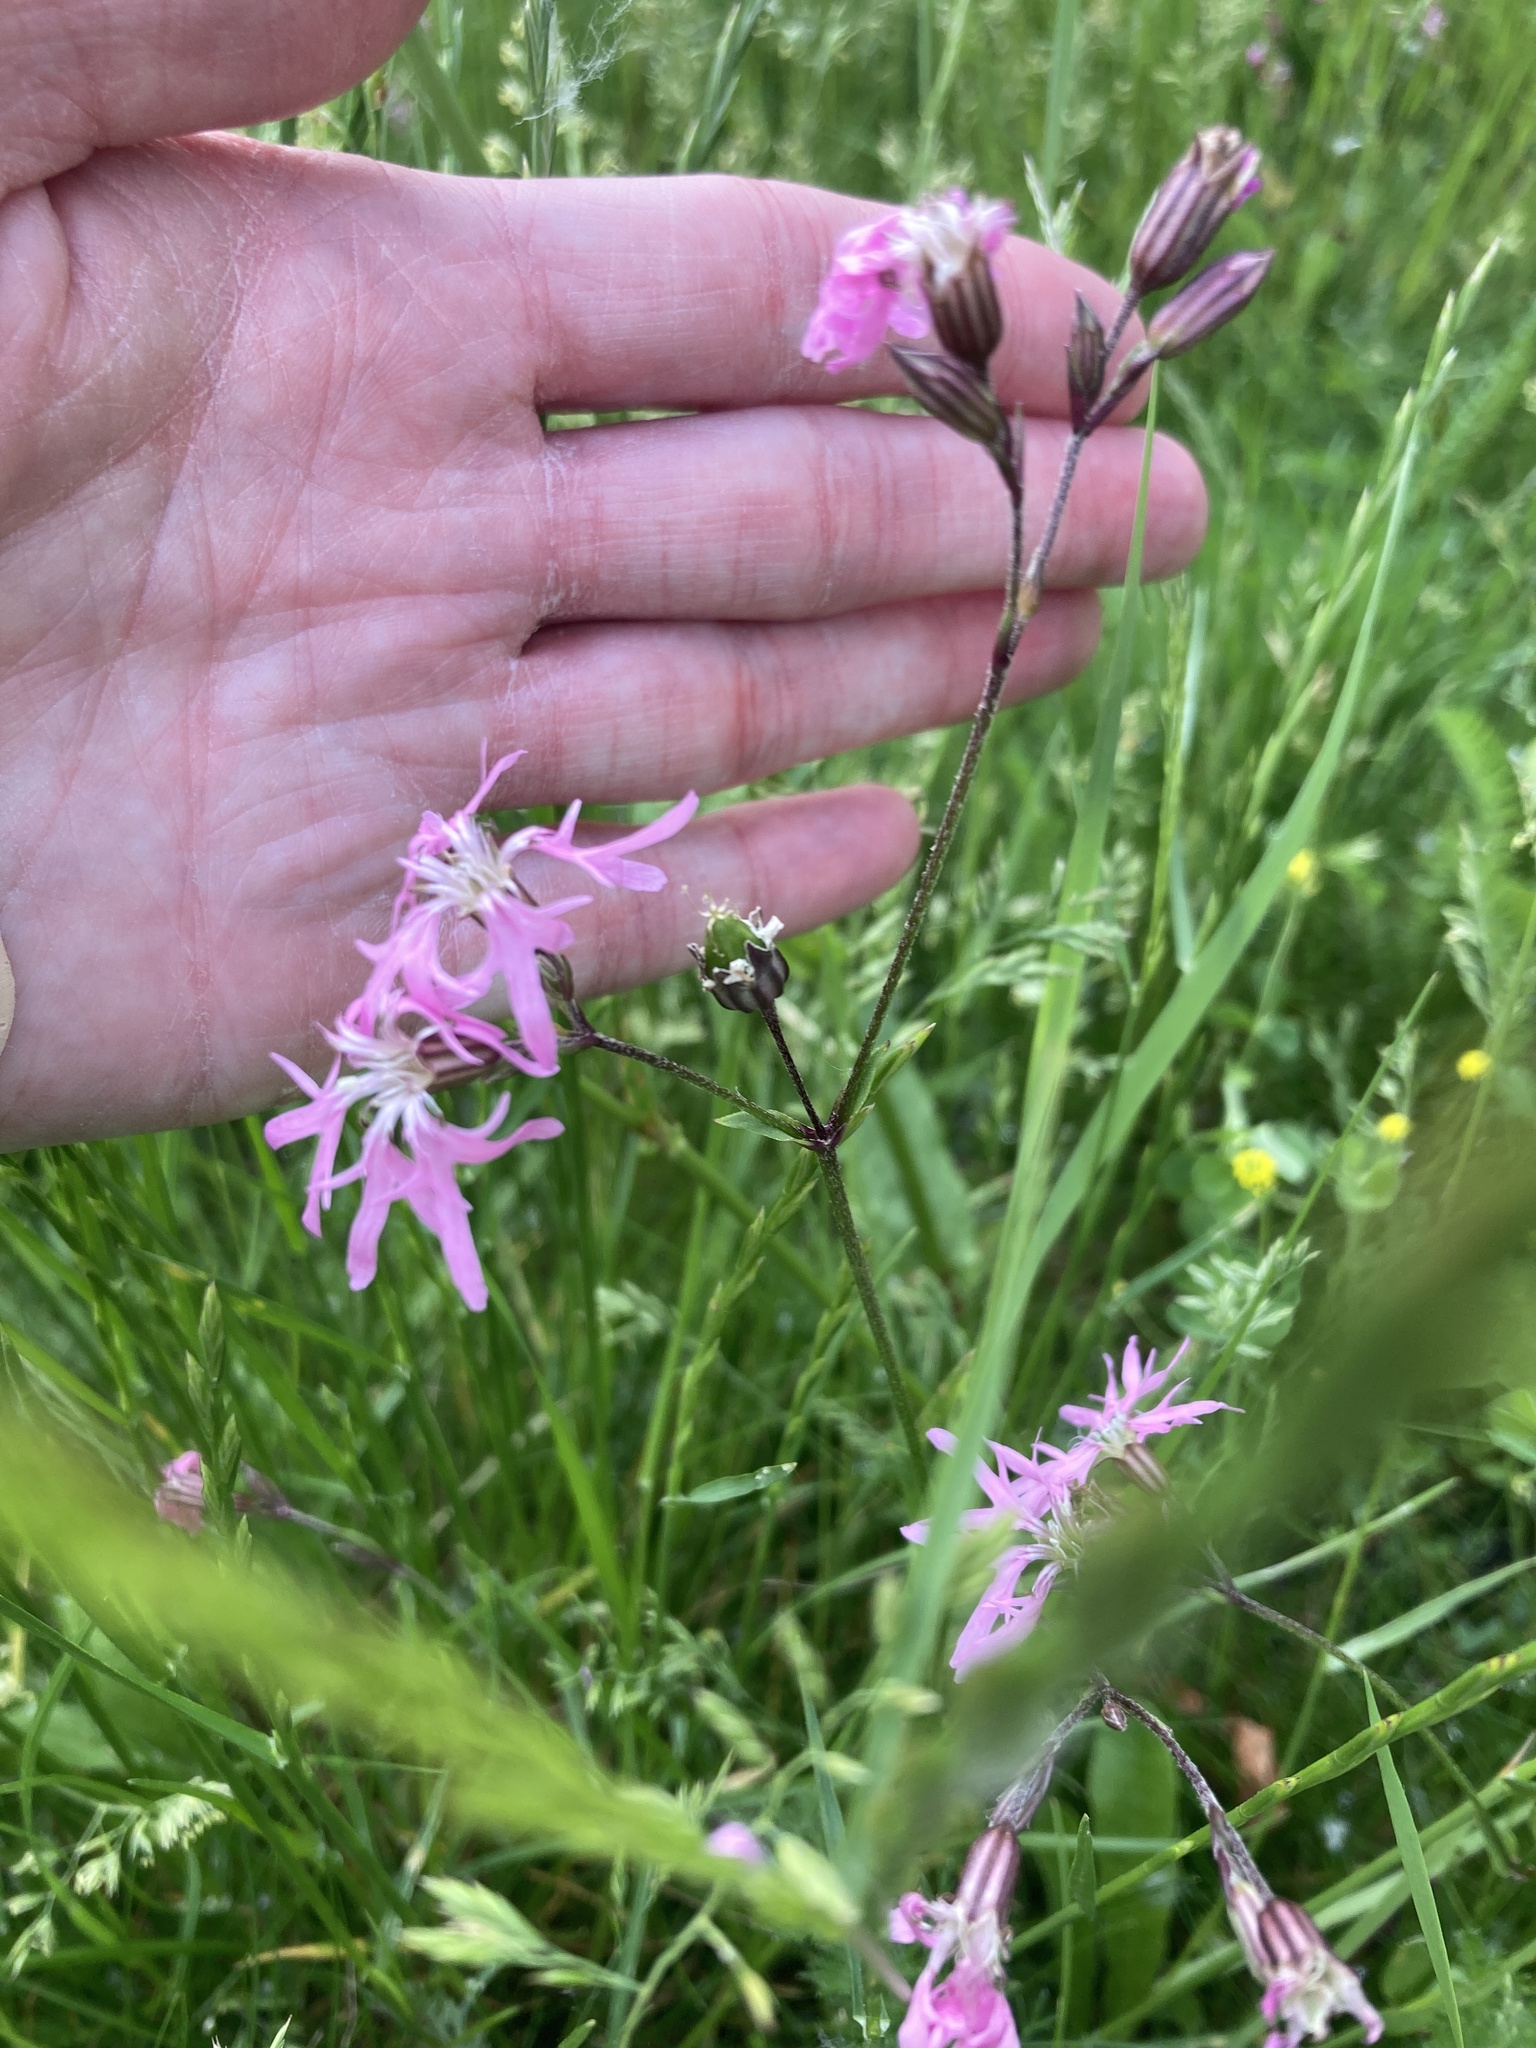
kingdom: Plantae
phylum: Tracheophyta
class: Magnoliopsida
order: Caryophyllales
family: Caryophyllaceae
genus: Silene
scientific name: Silene flos-cuculi
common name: Ragged-robin
